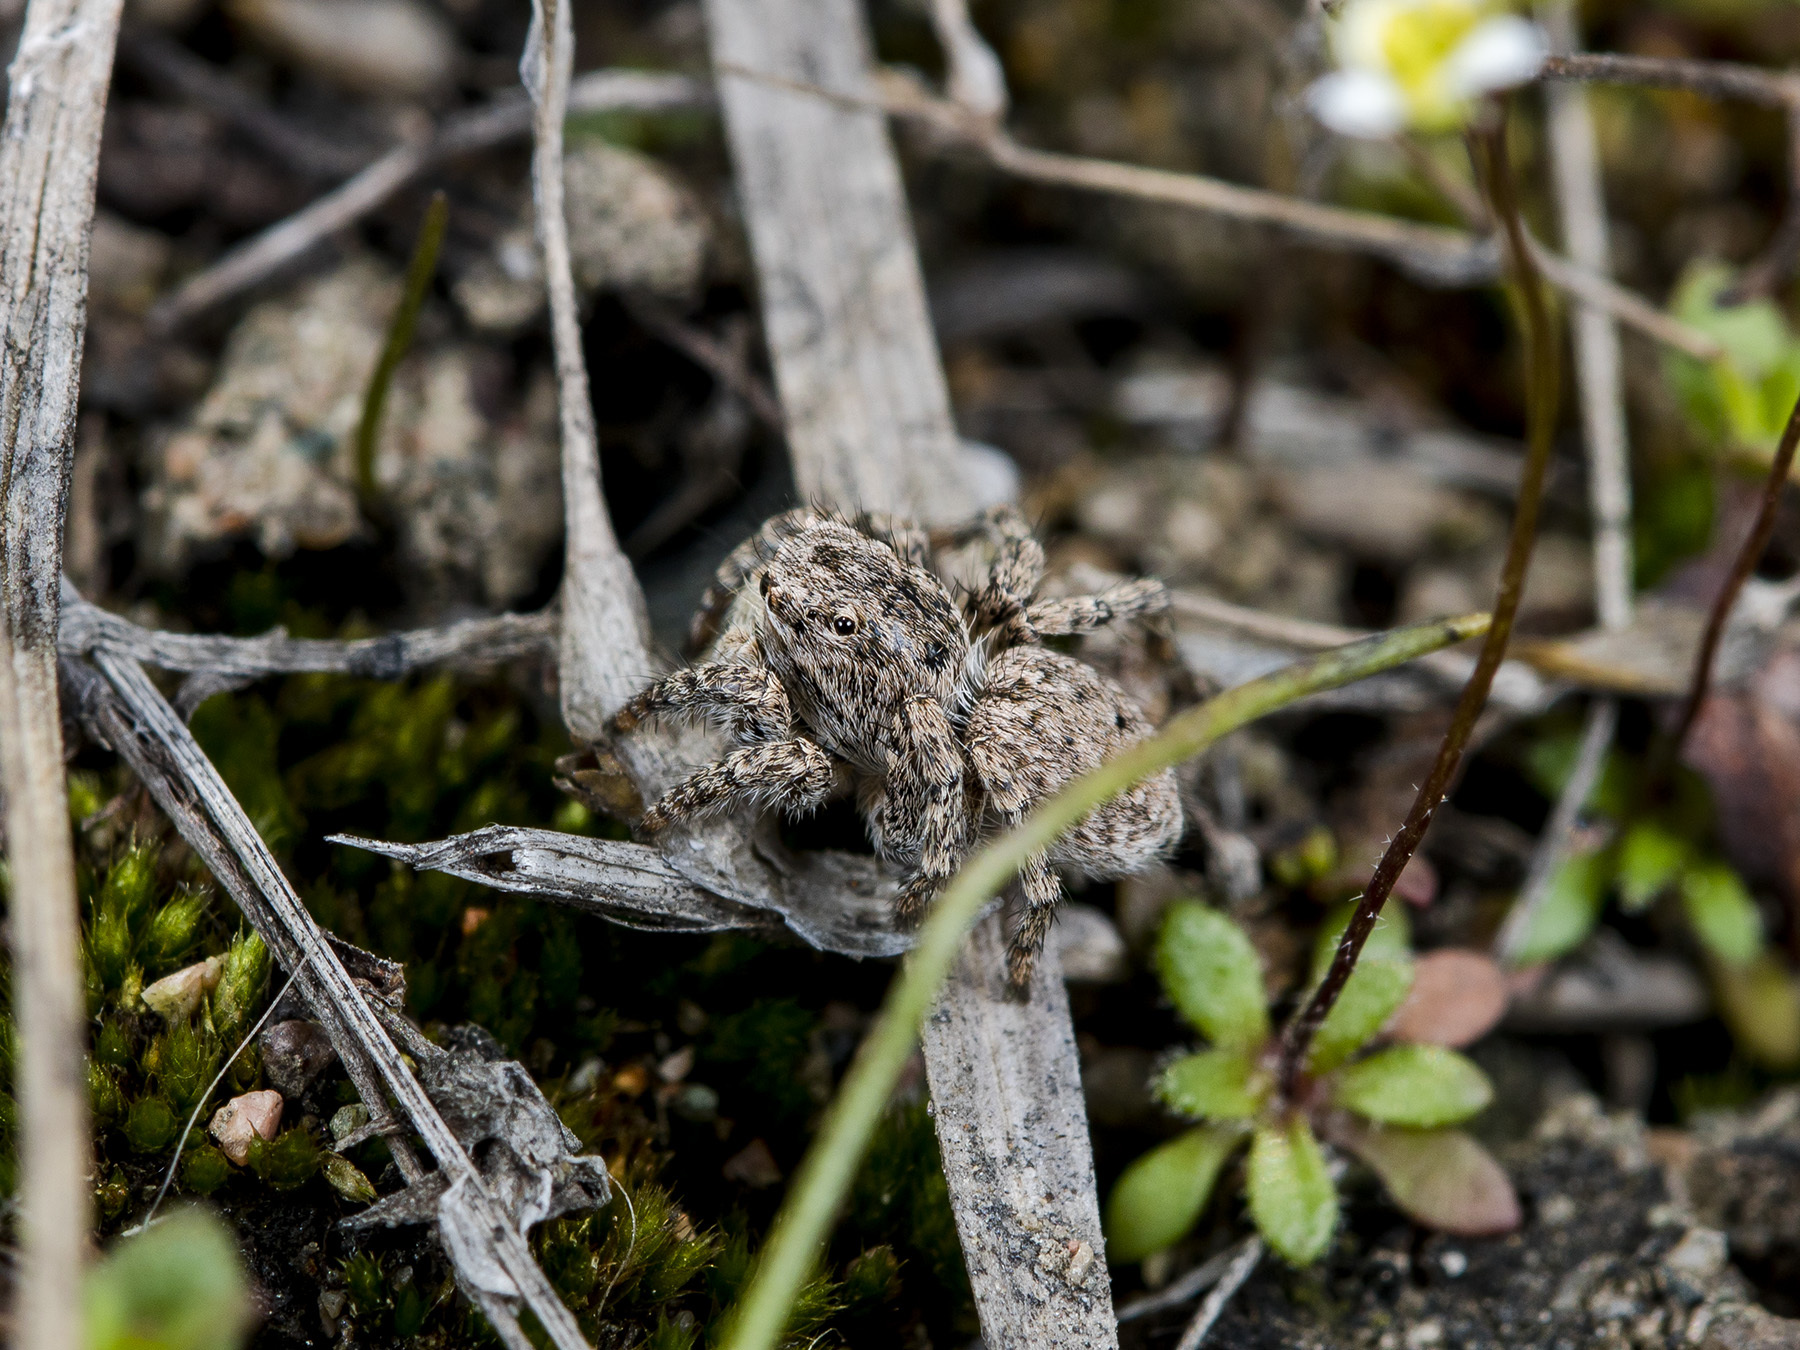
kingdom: Animalia
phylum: Arthropoda
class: Arachnida
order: Araneae
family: Salticidae
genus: Aelurillus
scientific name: Aelurillus v-insignitus
